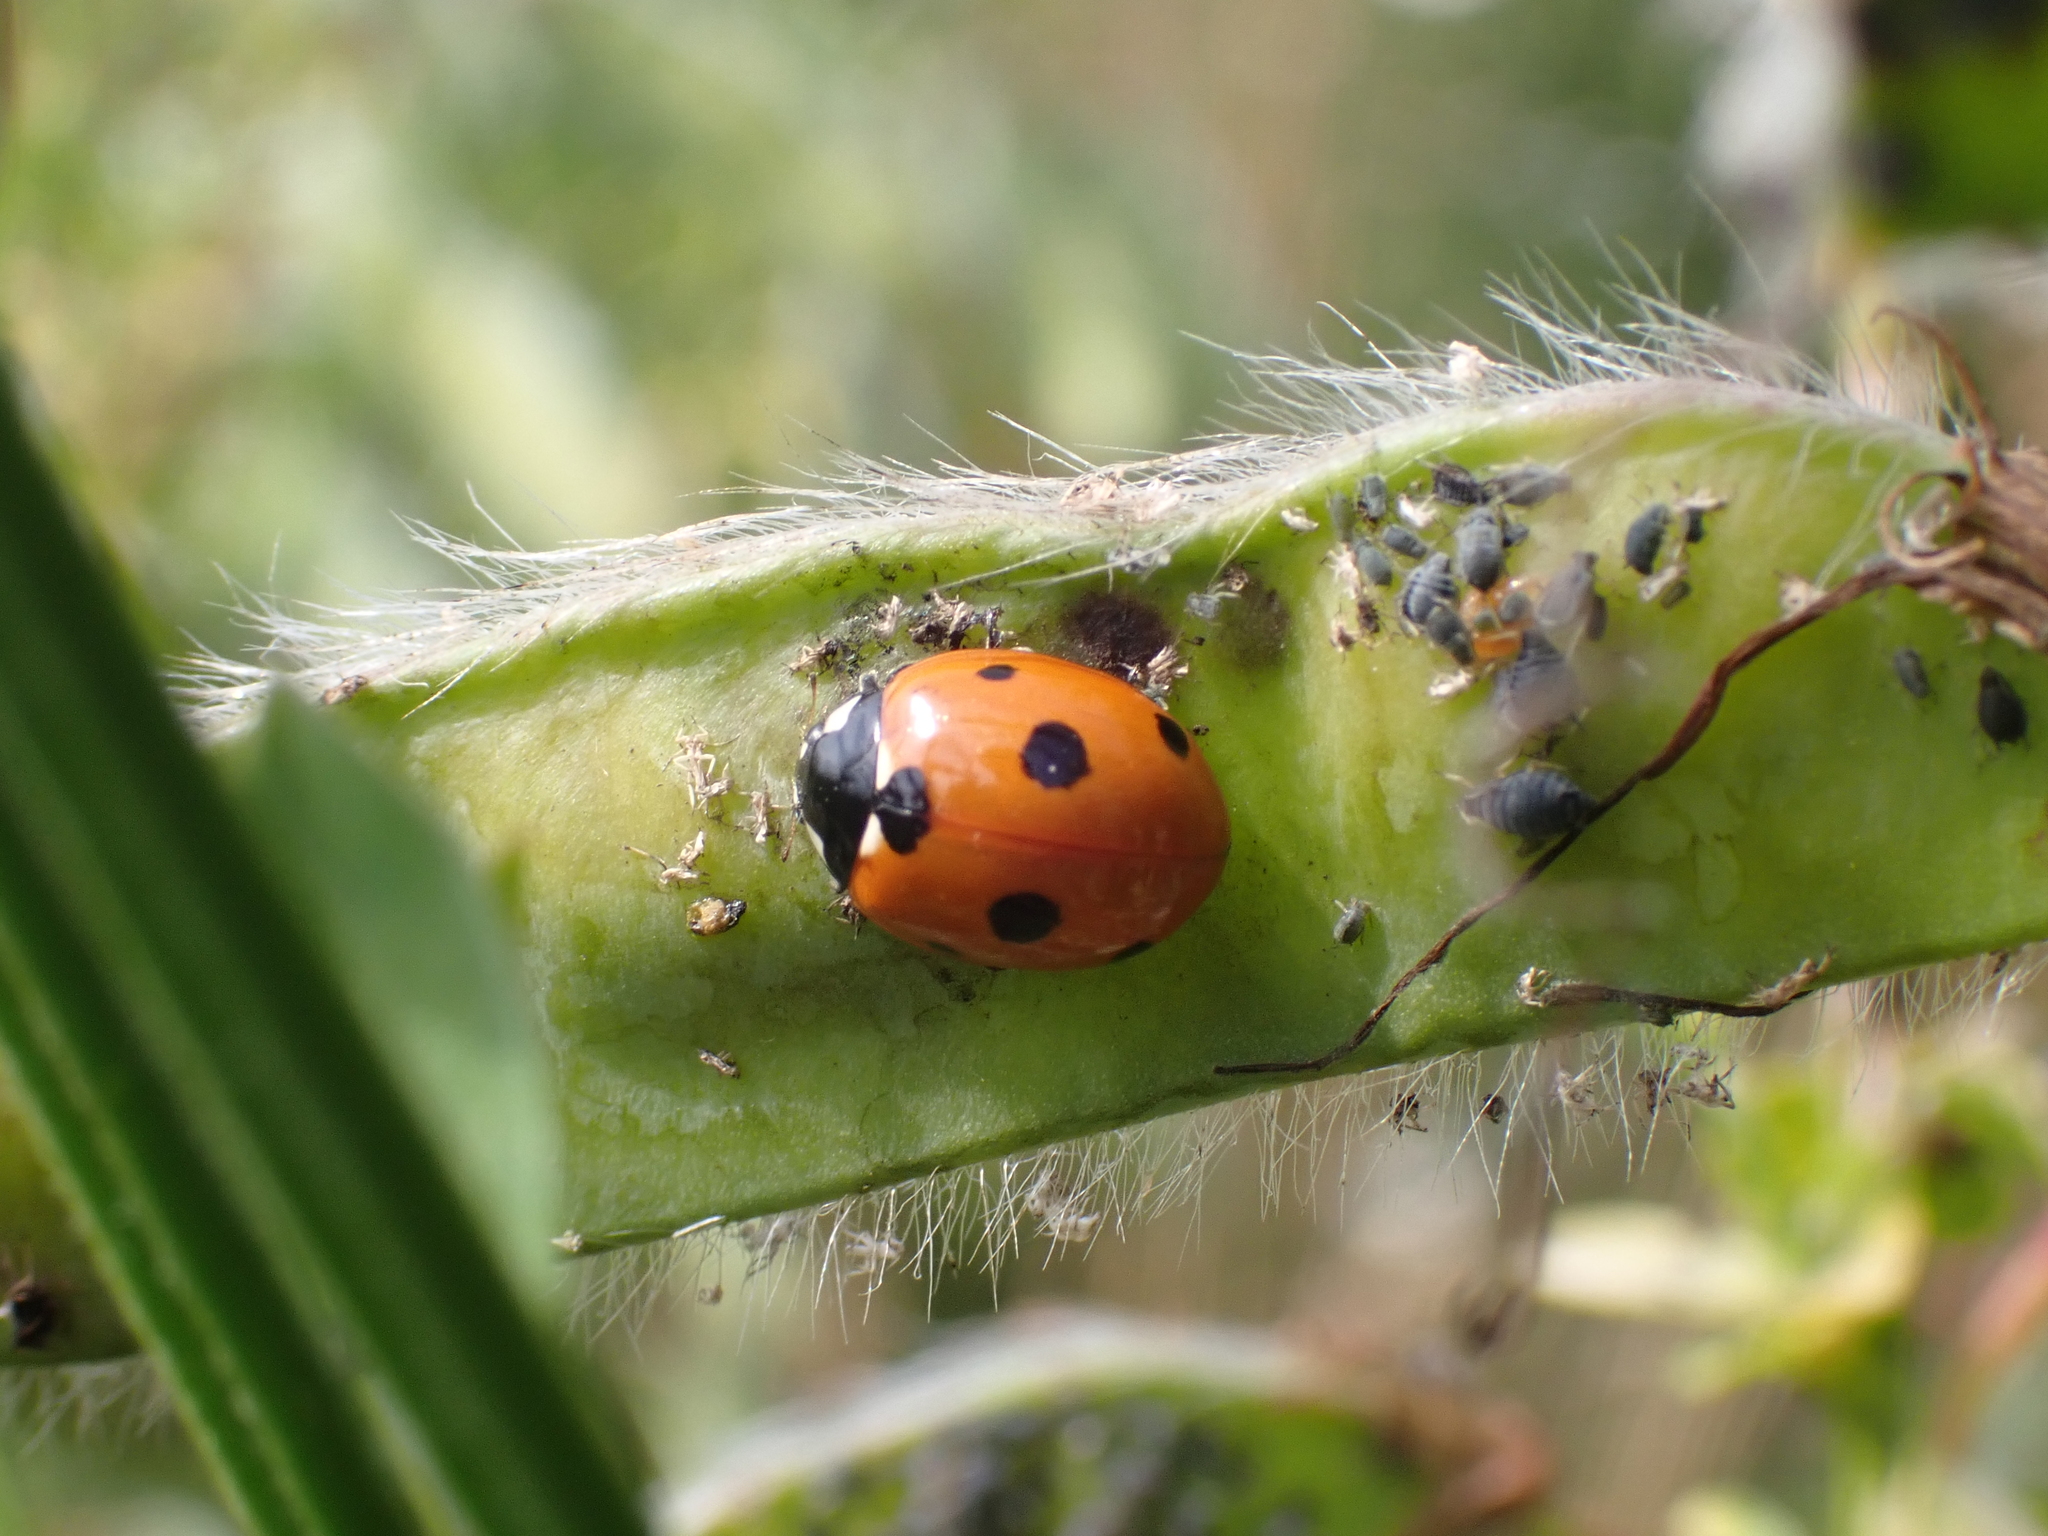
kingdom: Animalia
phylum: Arthropoda
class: Insecta
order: Coleoptera
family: Coccinellidae
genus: Coccinella
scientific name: Coccinella septempunctata
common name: Sevenspotted lady beetle
